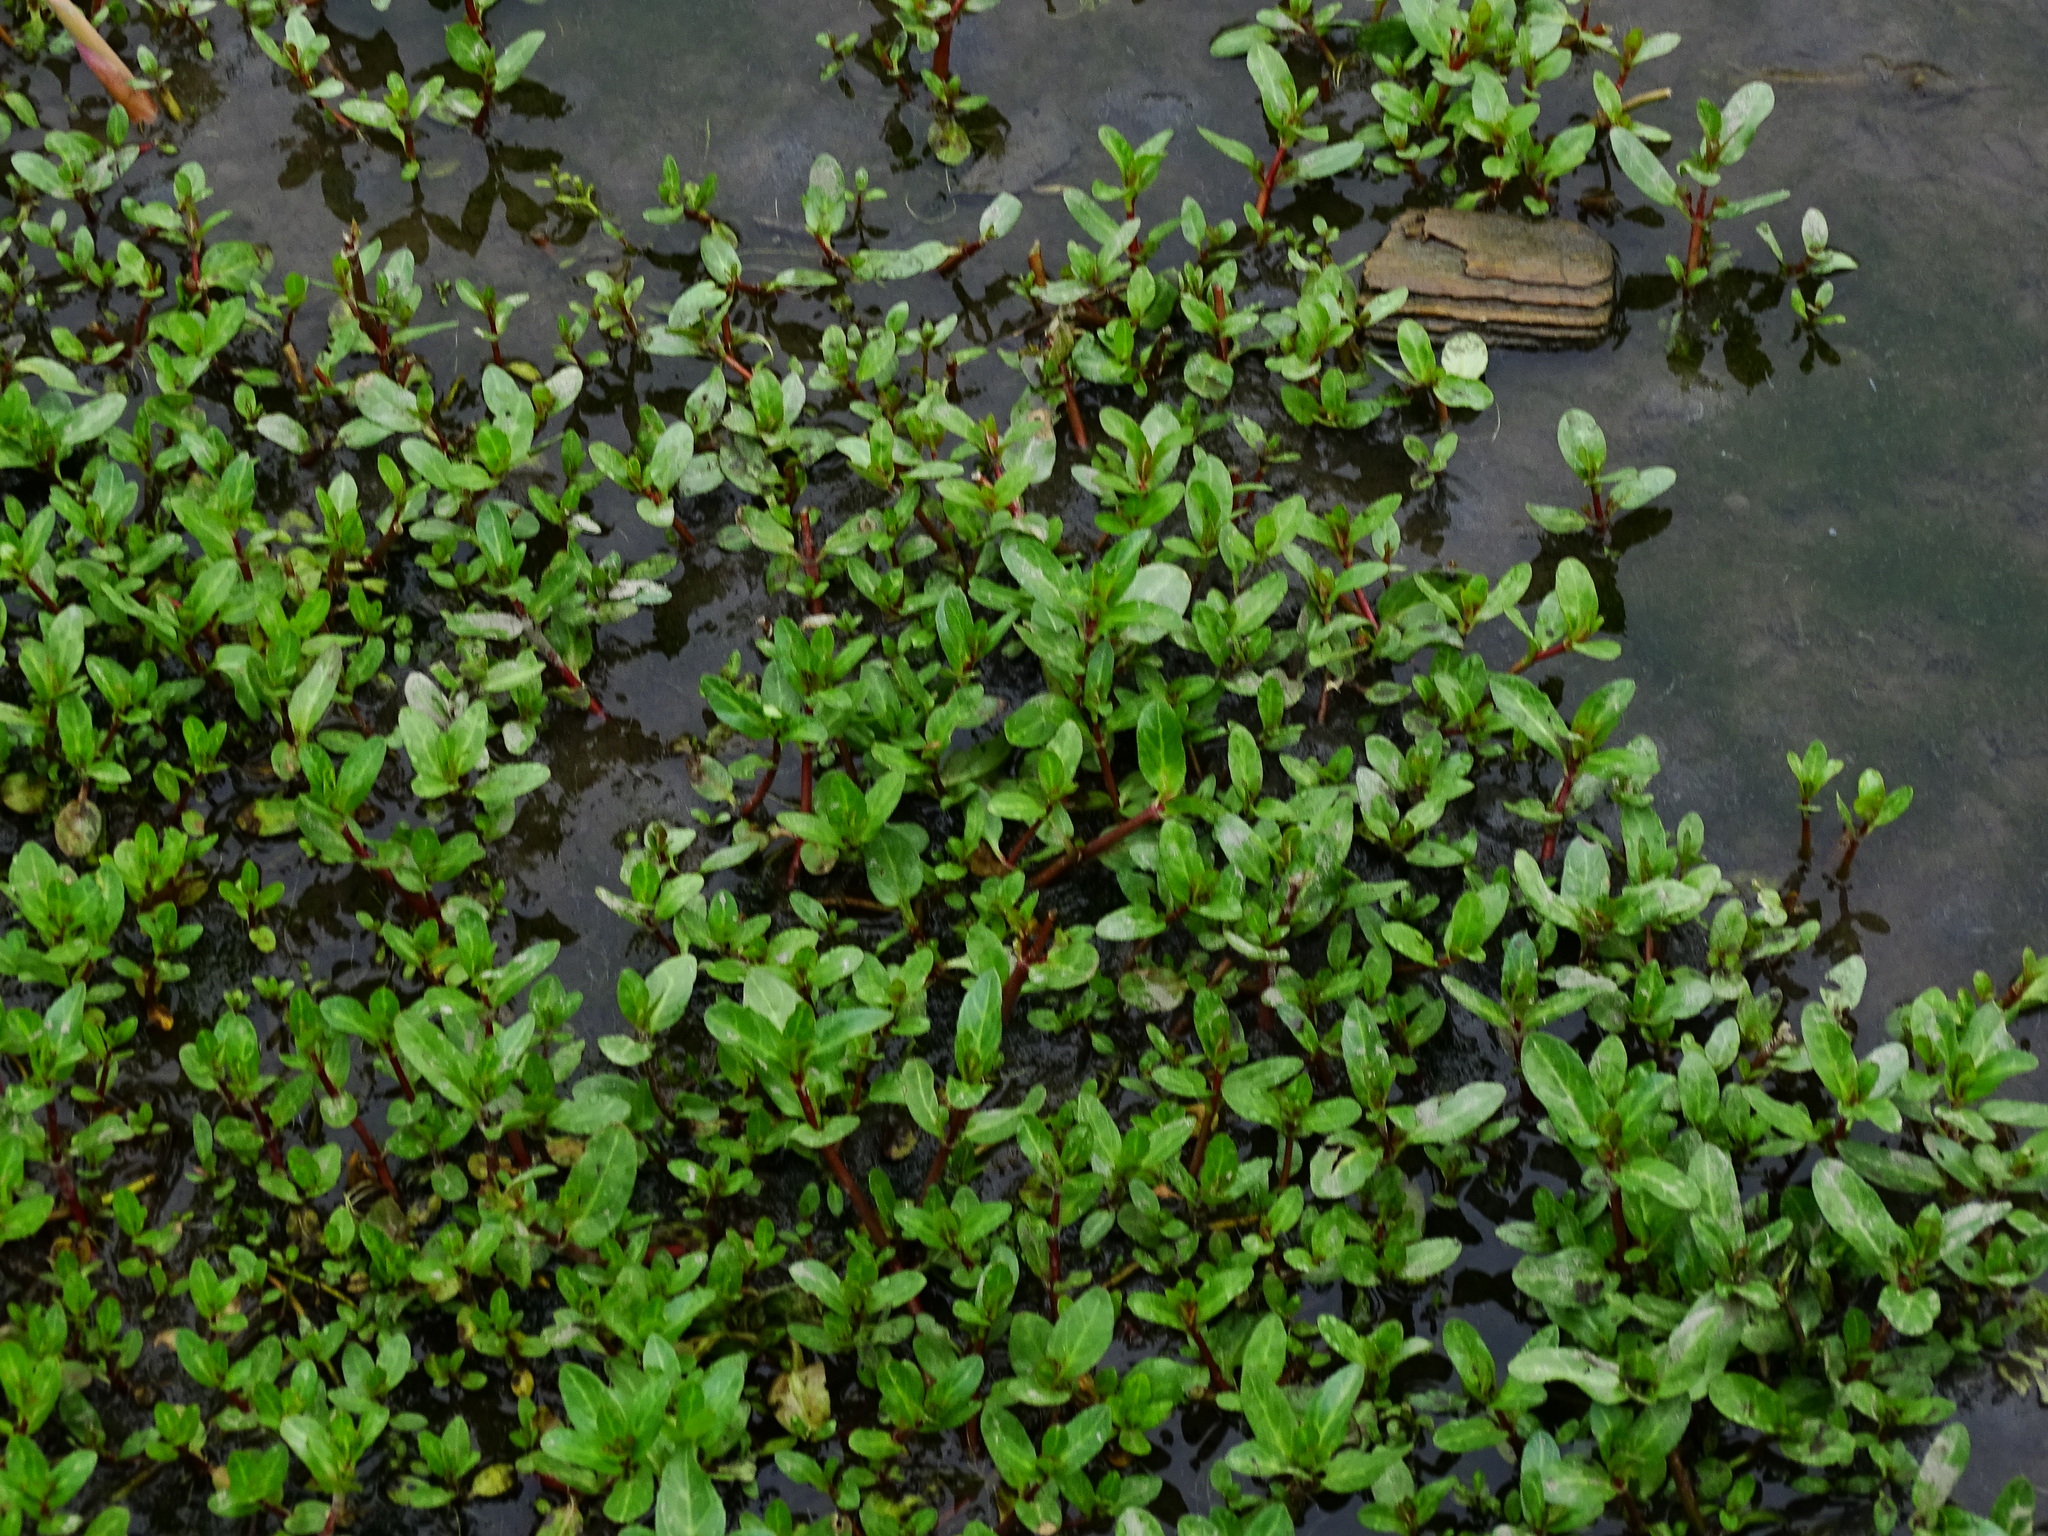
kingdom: Plantae
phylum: Tracheophyta
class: Magnoliopsida
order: Lamiales
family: Plantaginaceae
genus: Veronica
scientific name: Veronica beccabunga
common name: Brooklime
